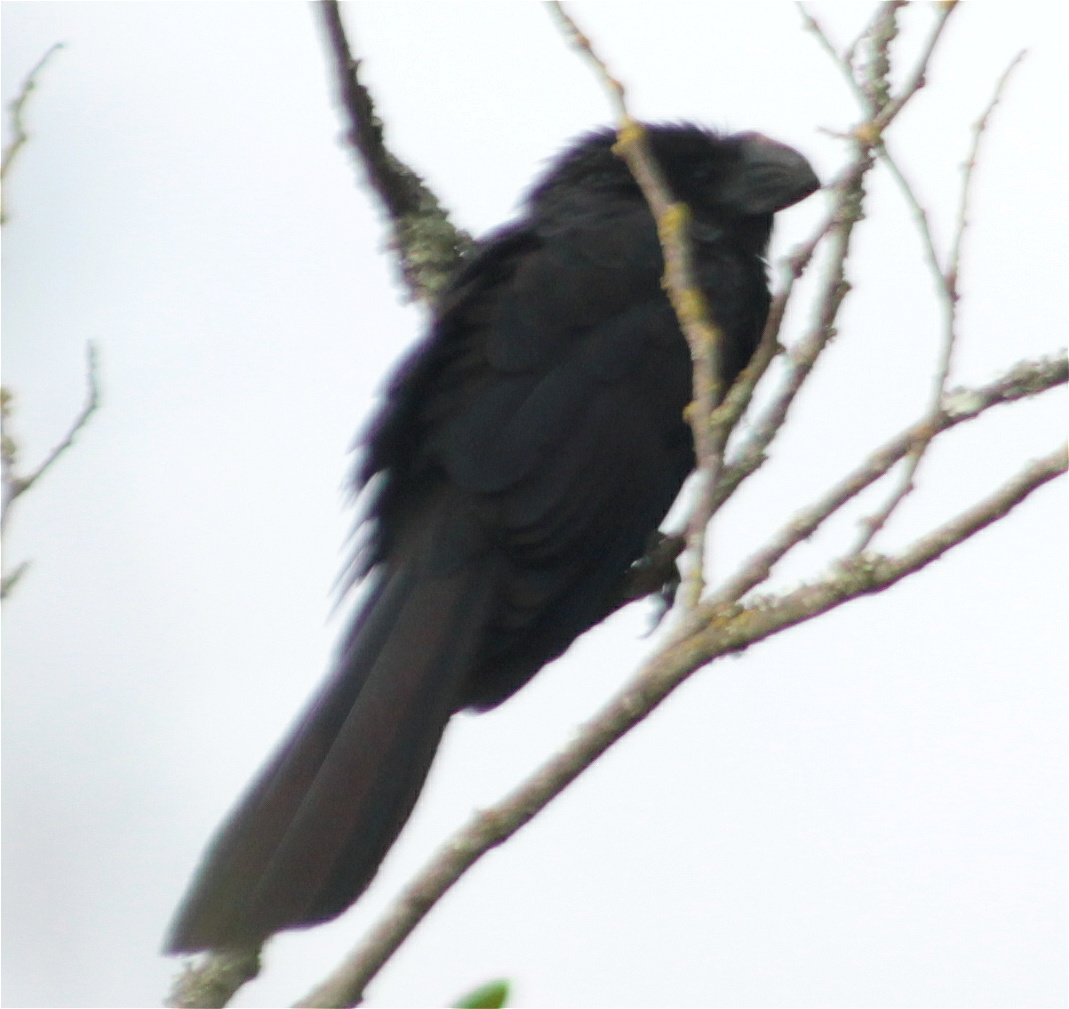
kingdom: Animalia
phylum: Chordata
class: Aves
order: Cuculiformes
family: Cuculidae
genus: Crotophaga
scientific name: Crotophaga ani
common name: Smooth-billed ani
